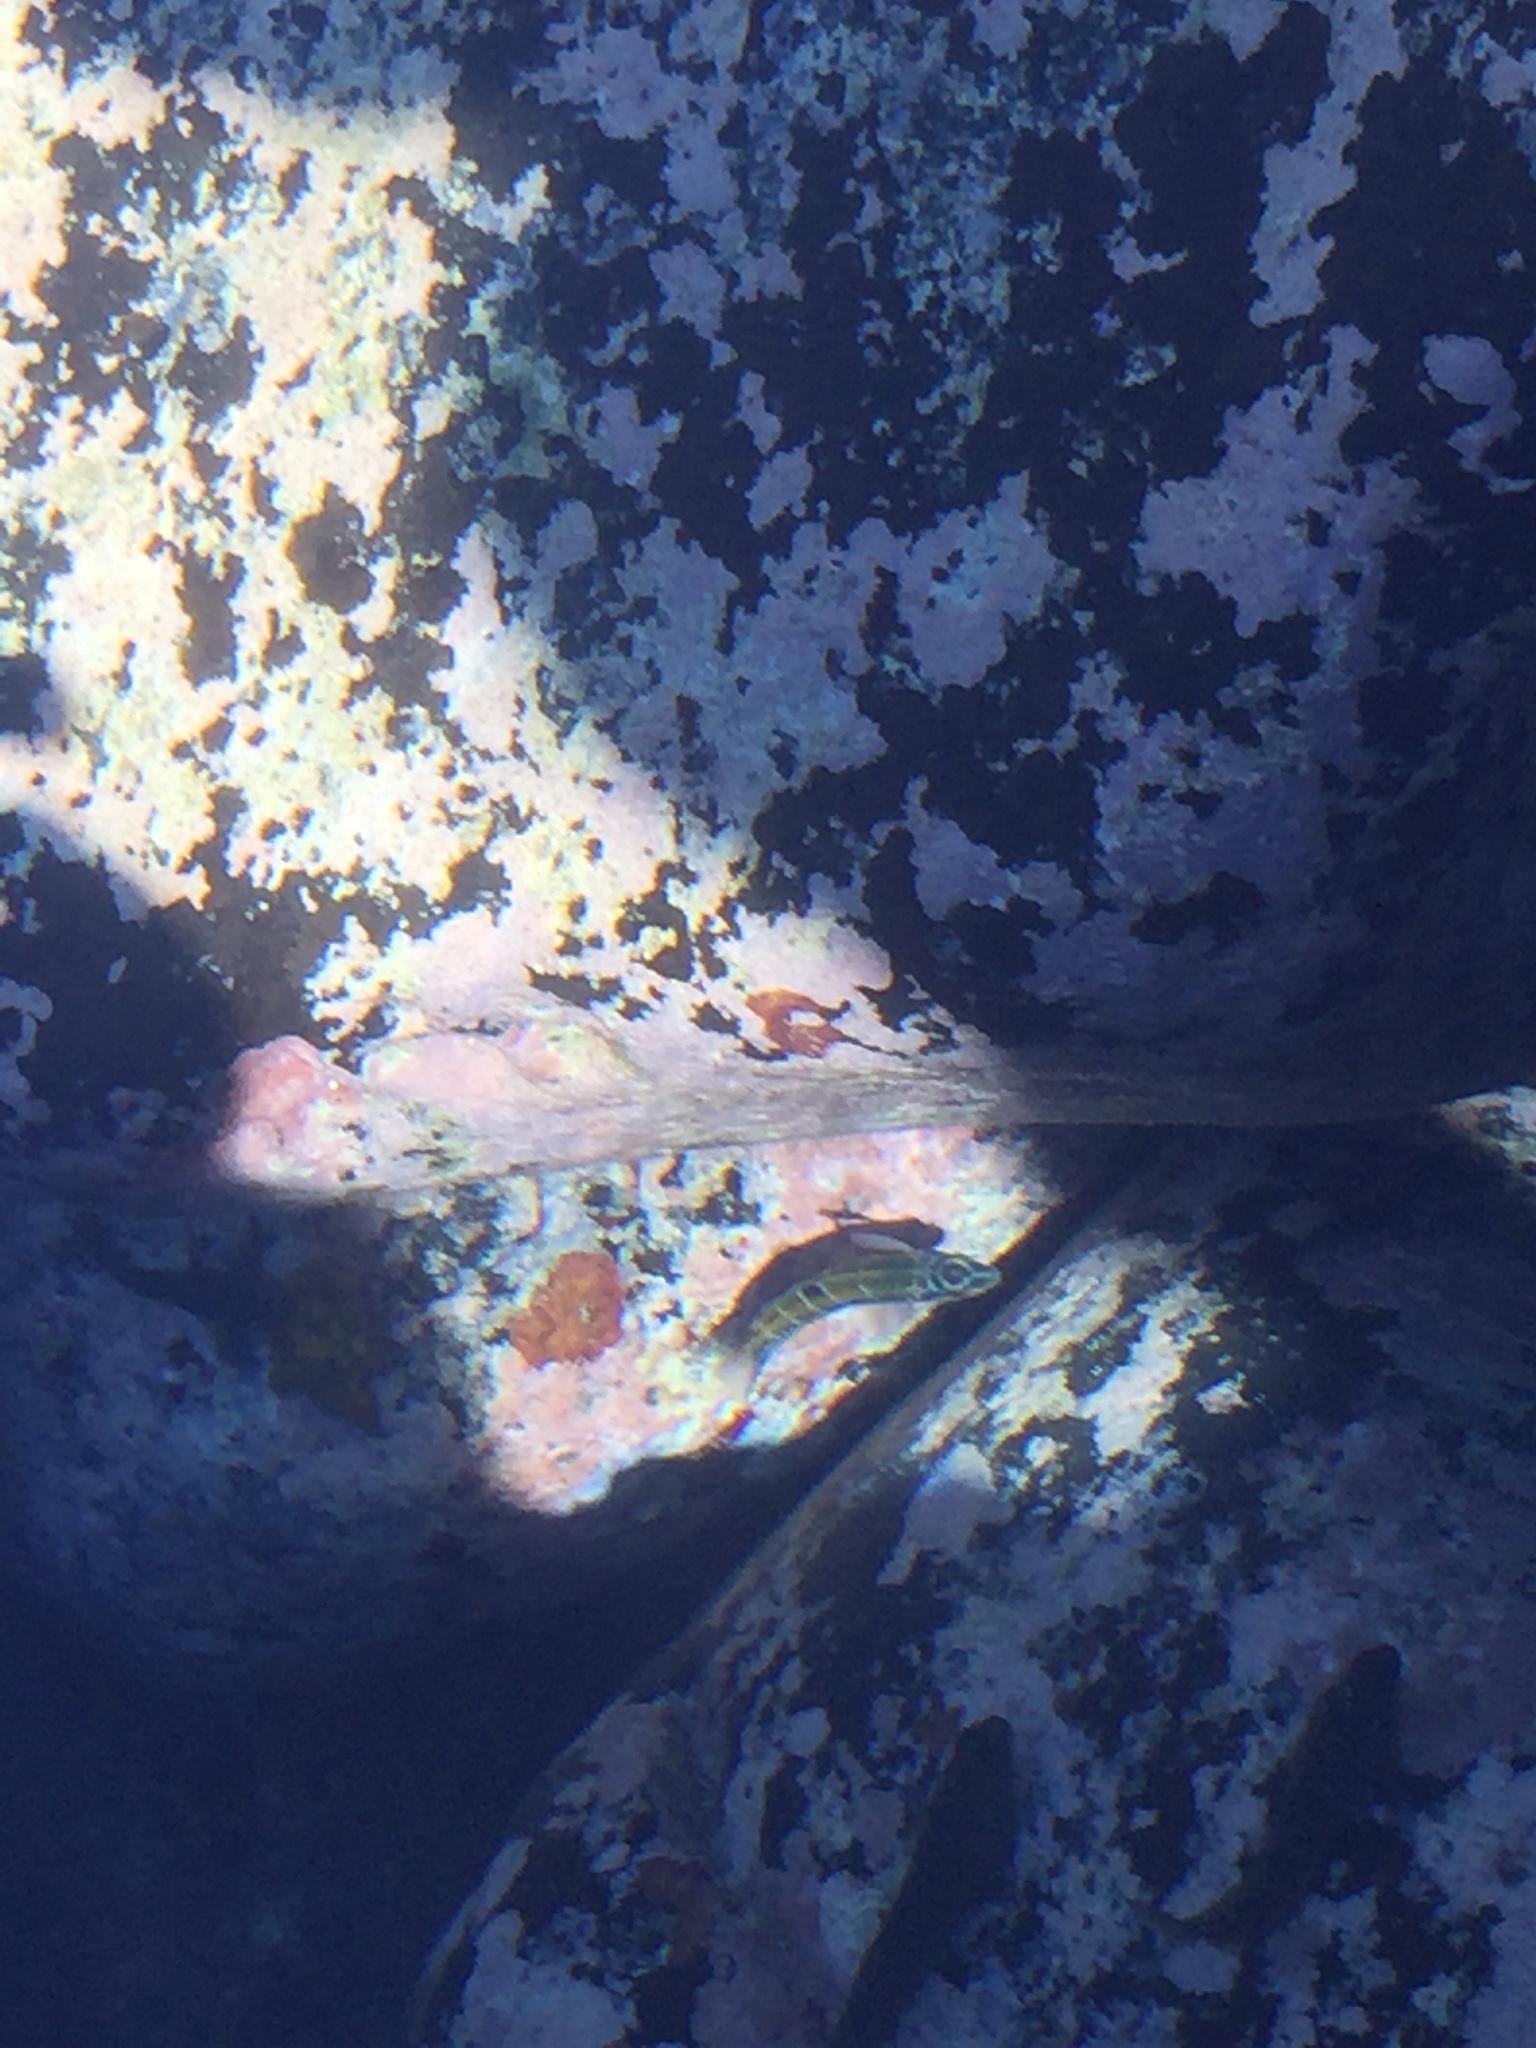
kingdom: Animalia
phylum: Chordata
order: Perciformes
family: Labridae
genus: Thalassoma
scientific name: Thalassoma pavo
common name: Ornate wrasse
